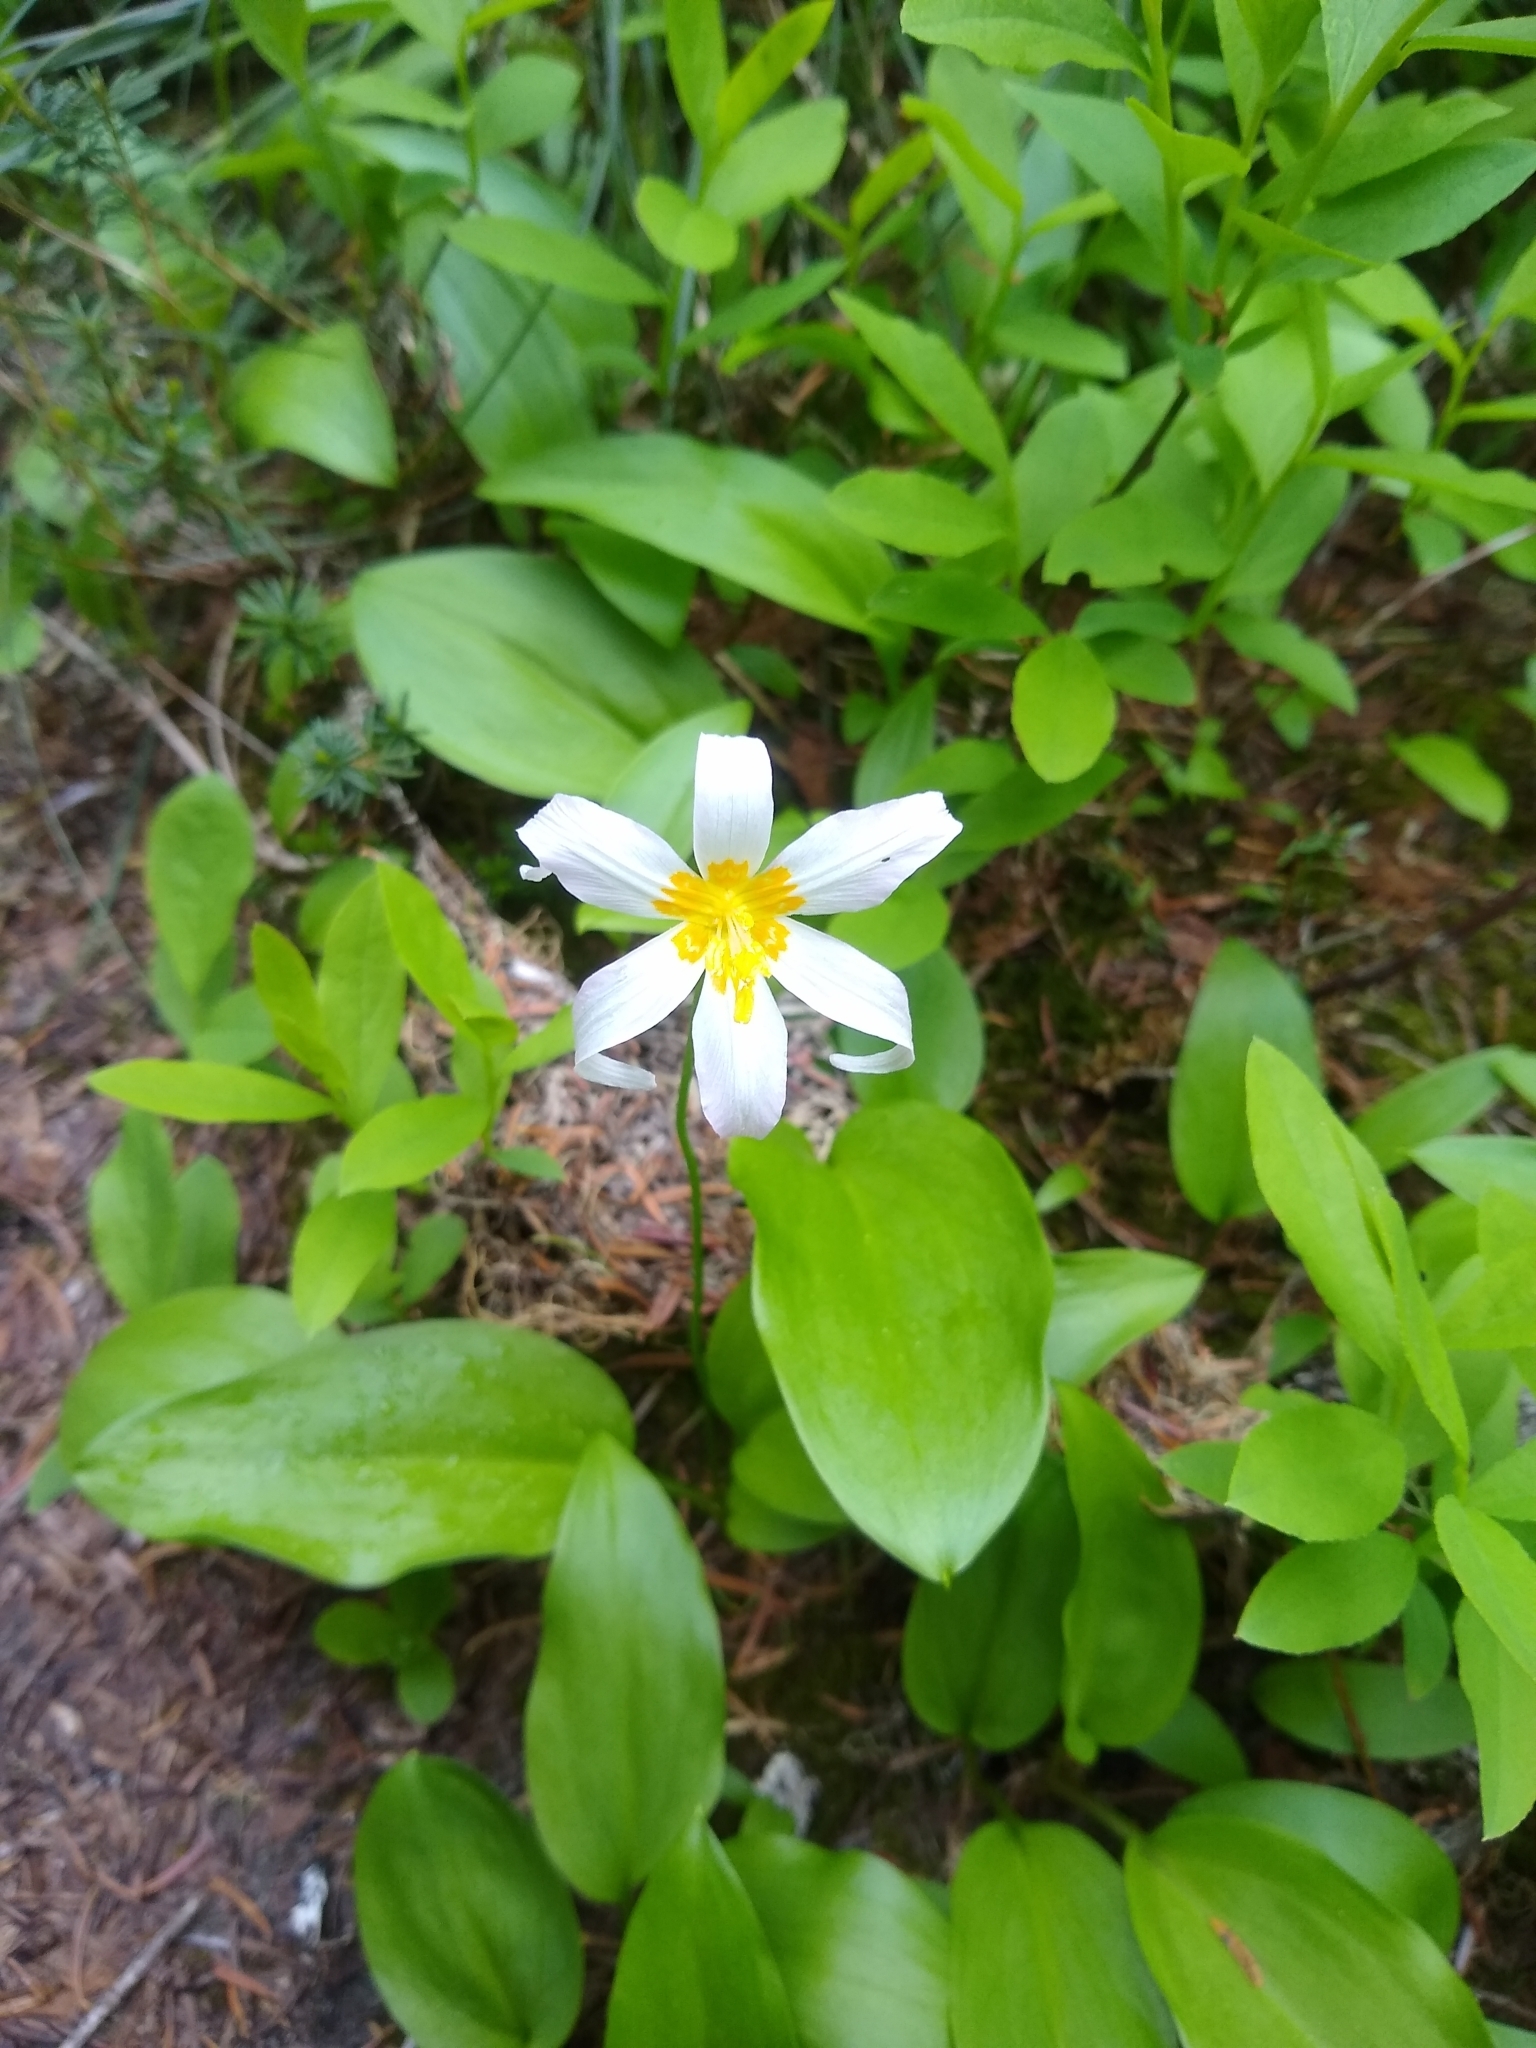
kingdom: Plantae
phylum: Tracheophyta
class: Liliopsida
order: Liliales
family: Liliaceae
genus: Erythronium
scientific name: Erythronium montanum
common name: Avalanche lily
